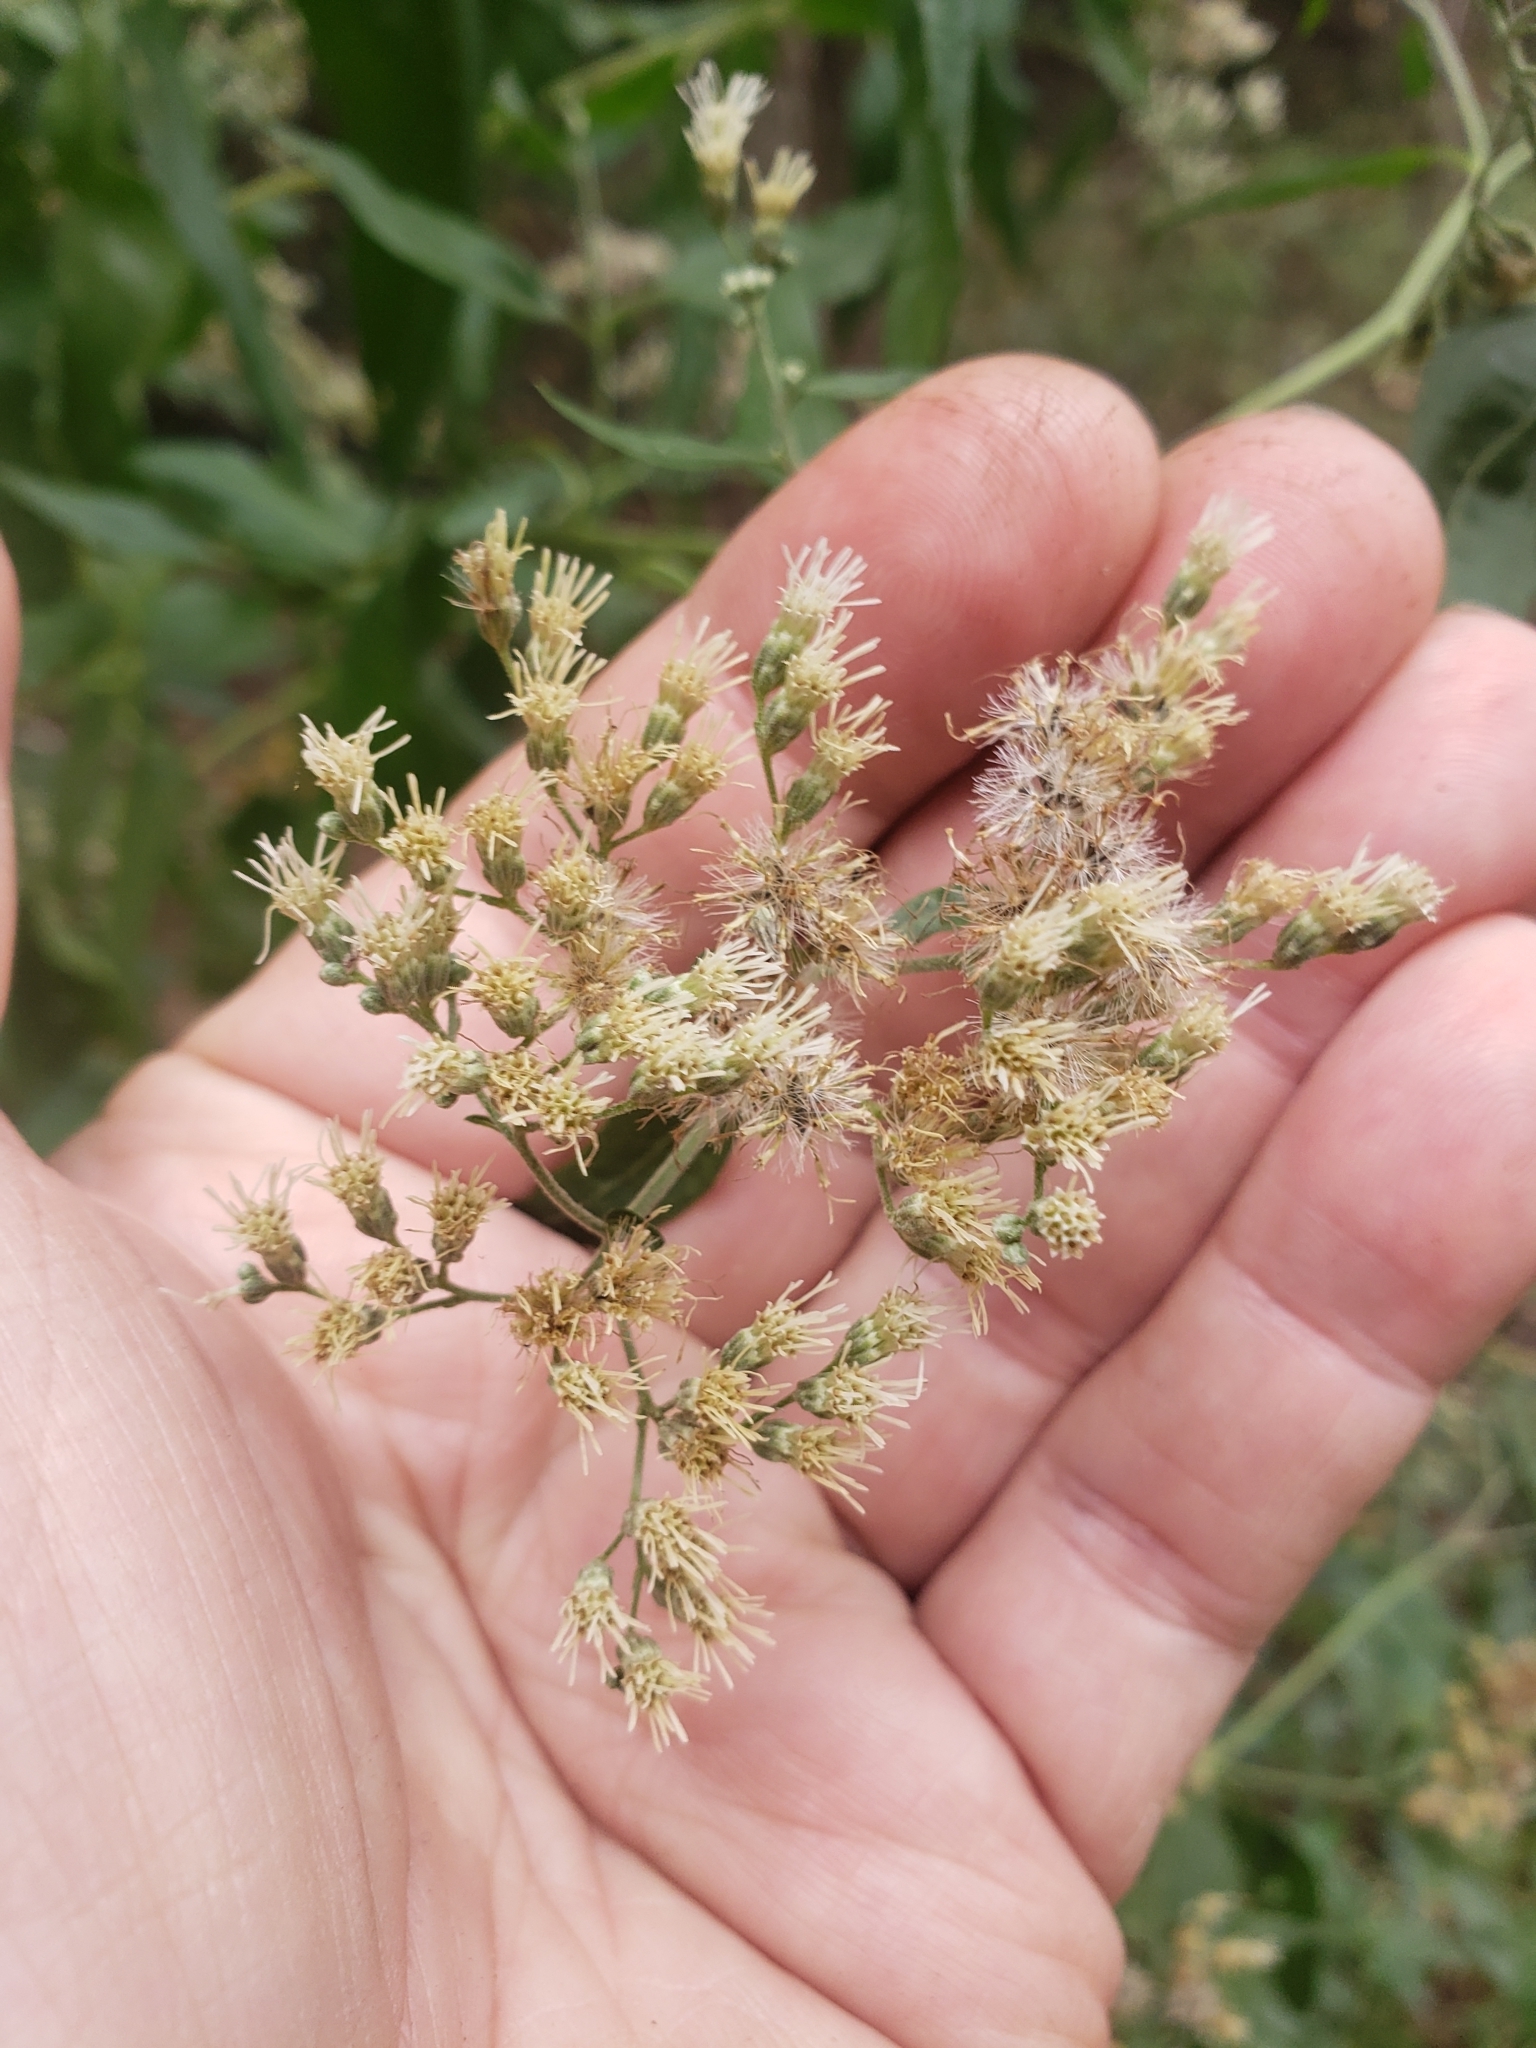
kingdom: Plantae
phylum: Tracheophyta
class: Magnoliopsida
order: Asterales
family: Asteraceae
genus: Eupatorium
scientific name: Eupatorium serotinum
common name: Late boneset
